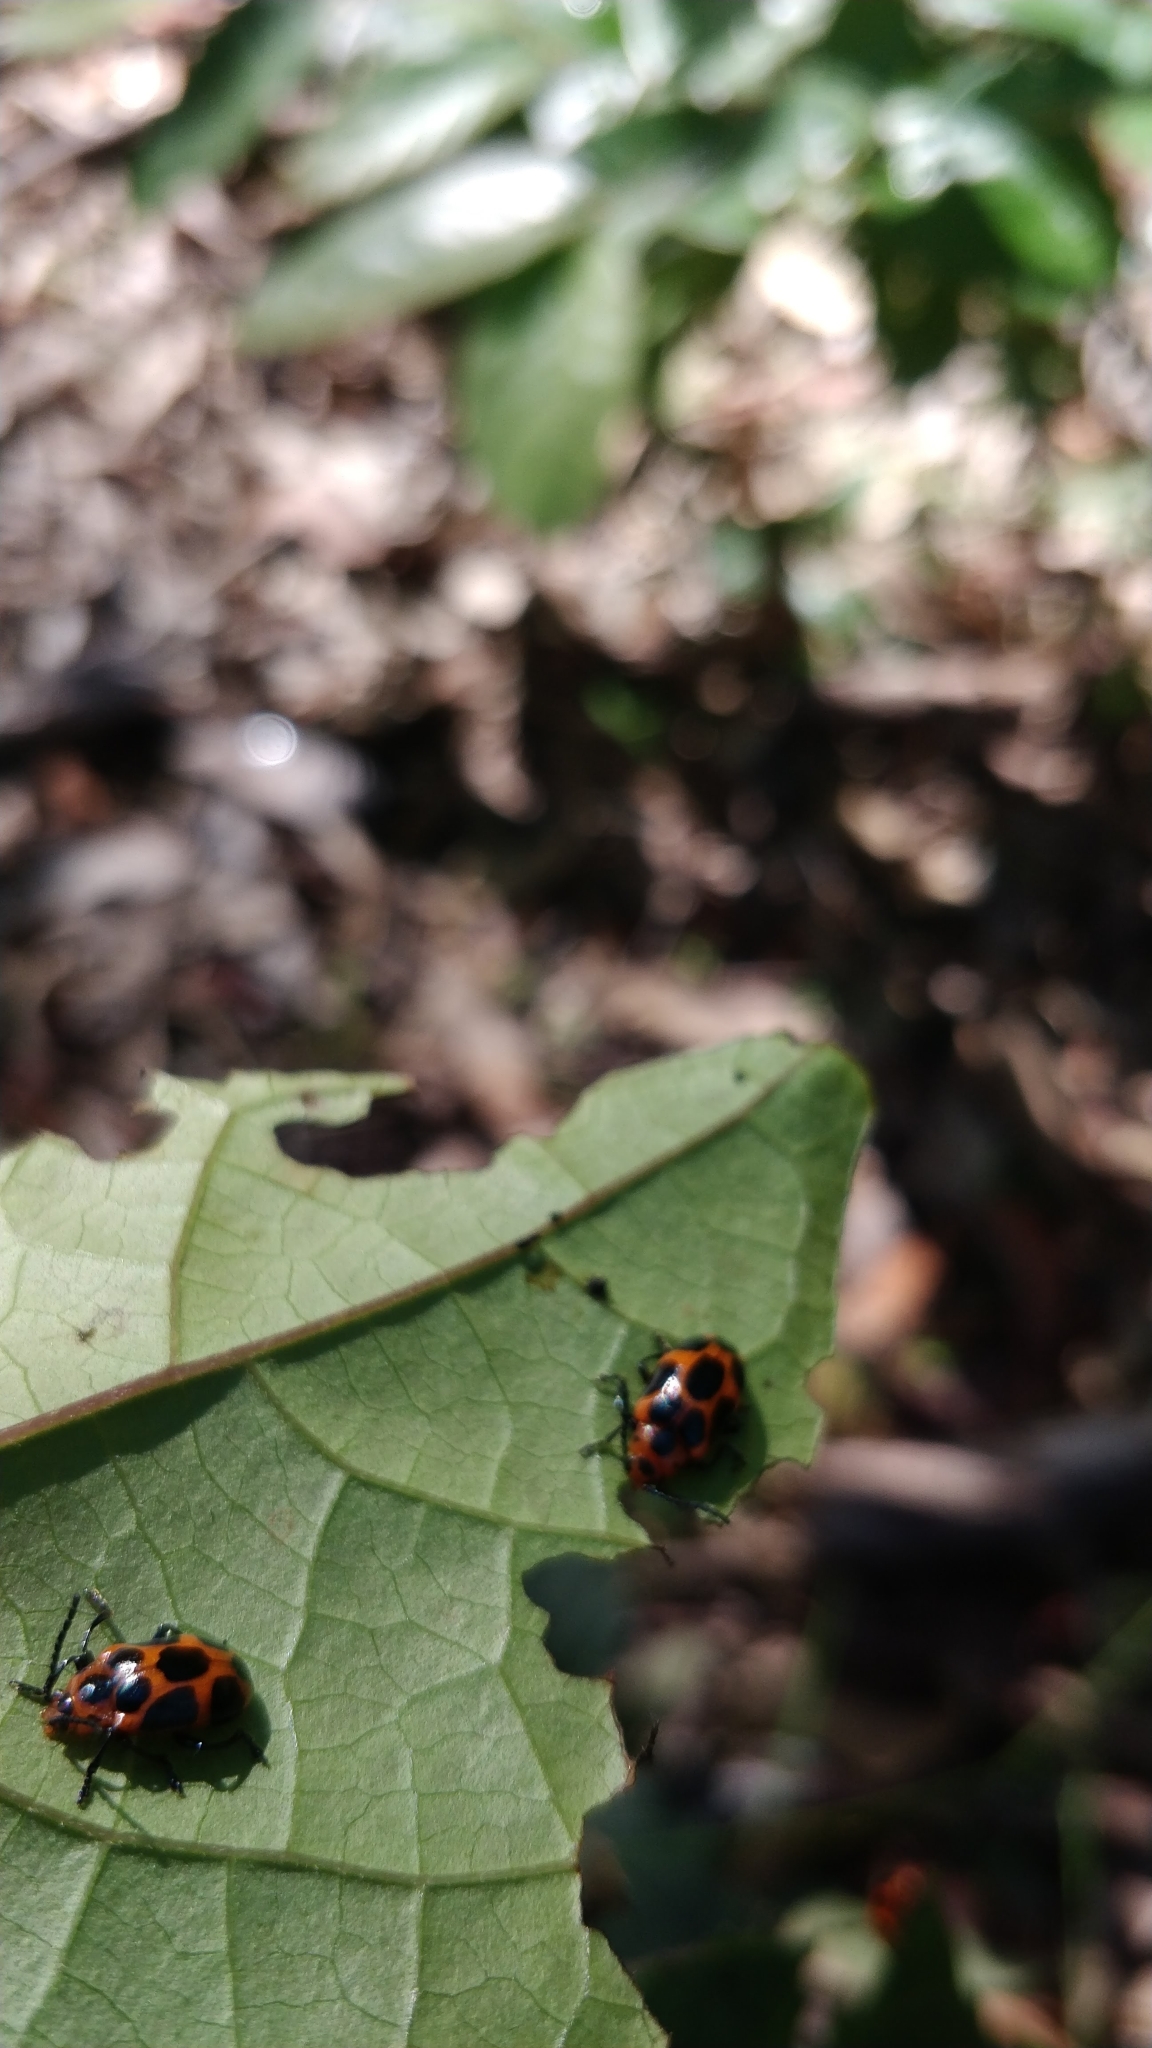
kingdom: Animalia
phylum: Arthropoda
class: Insecta
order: Coleoptera
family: Chrysomelidae
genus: Phyllocharis
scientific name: Phyllocharis
